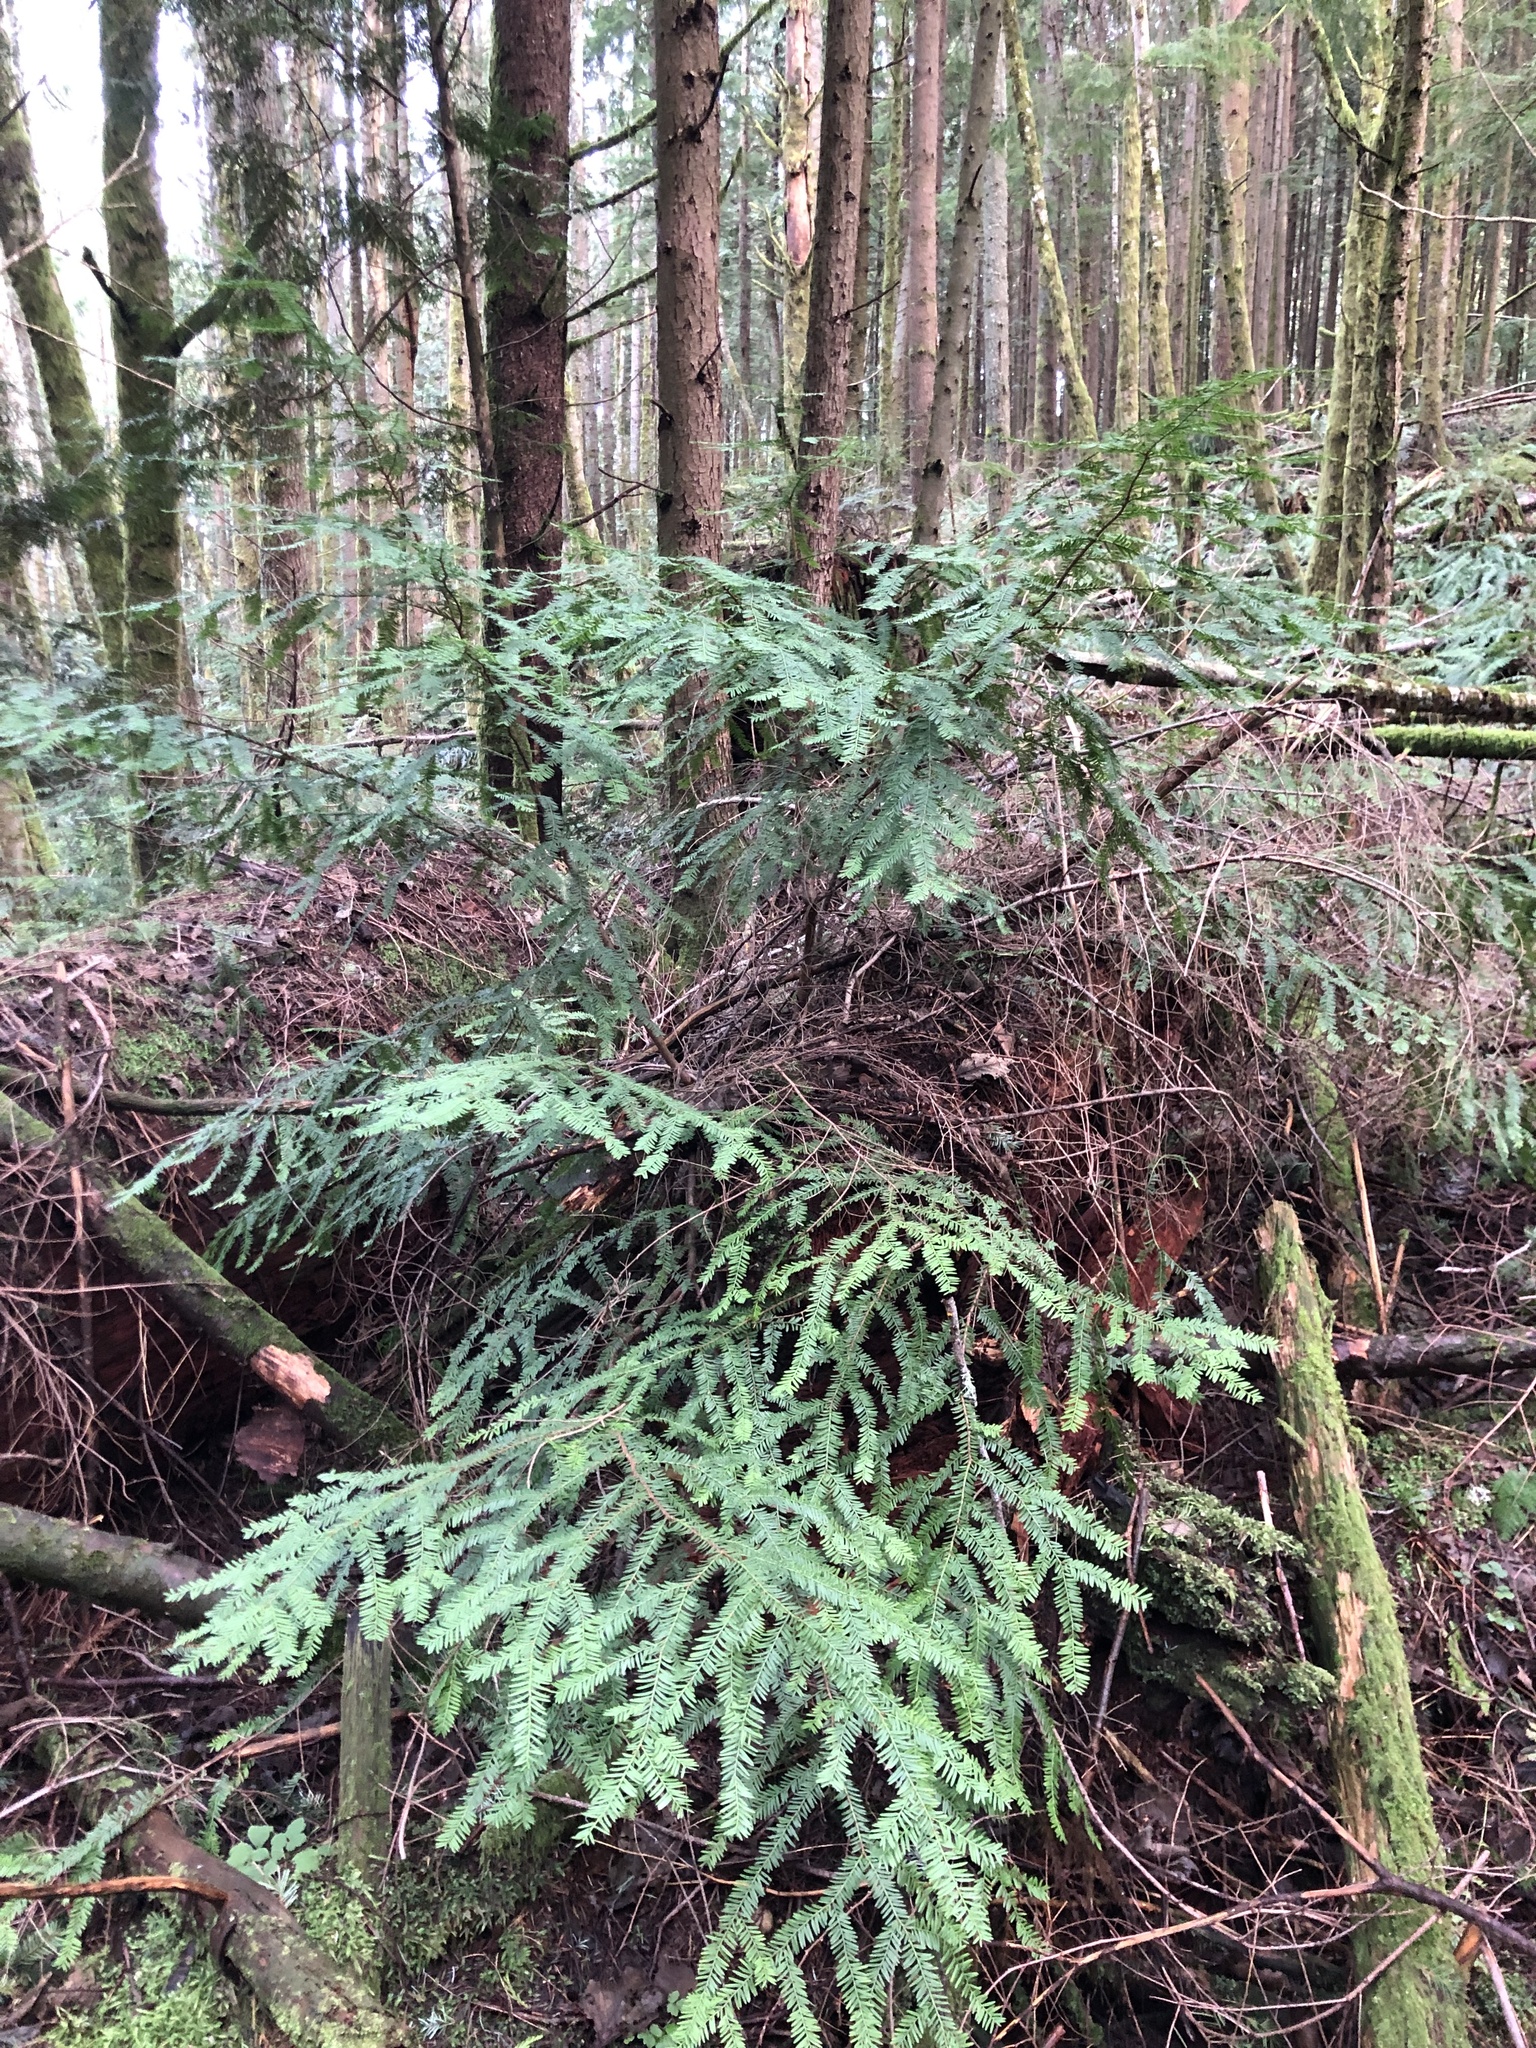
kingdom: Plantae
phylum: Tracheophyta
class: Pinopsida
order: Pinales
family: Taxaceae
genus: Taxus
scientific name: Taxus brevifolia
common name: Pacific yew
